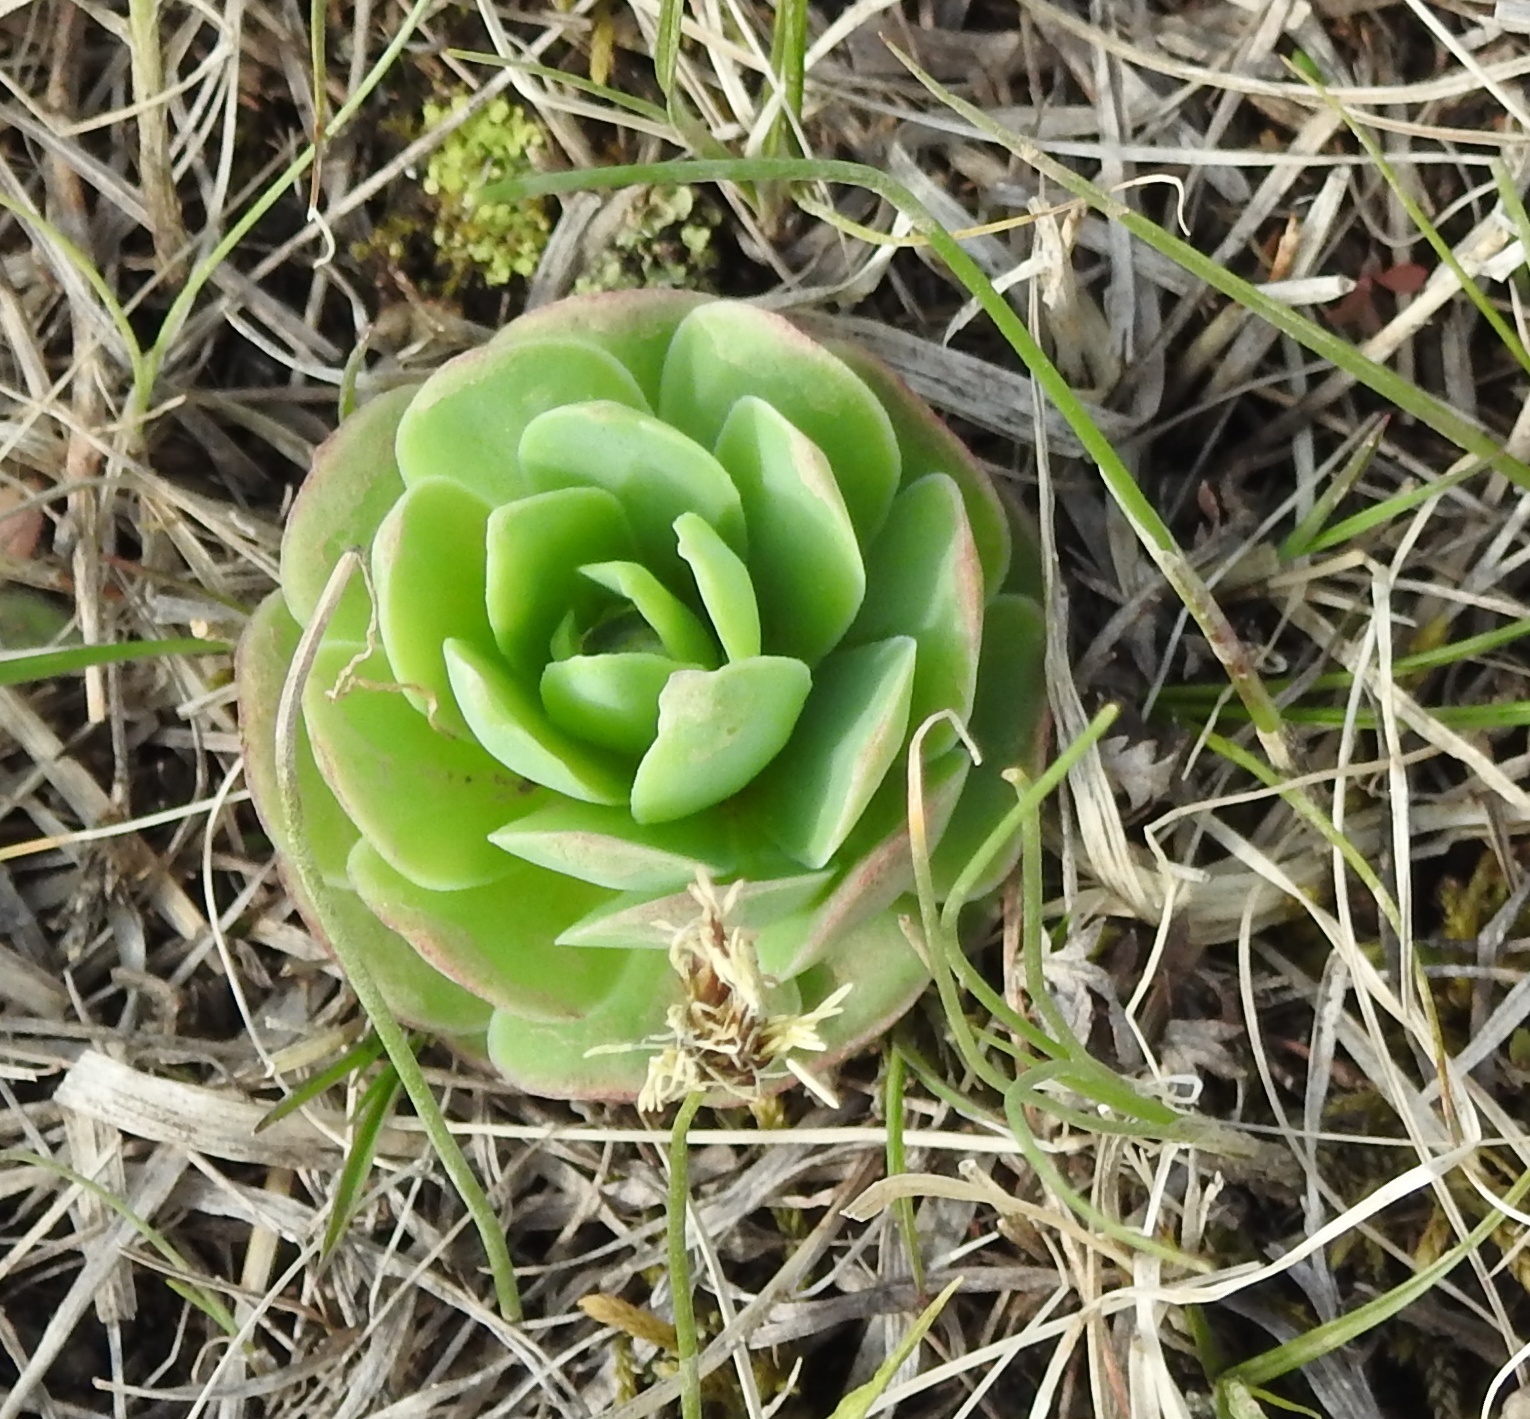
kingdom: Plantae
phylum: Tracheophyta
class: Magnoliopsida
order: Saxifragales
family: Crassulaceae
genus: Orostachys
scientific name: Orostachys malacophylla
